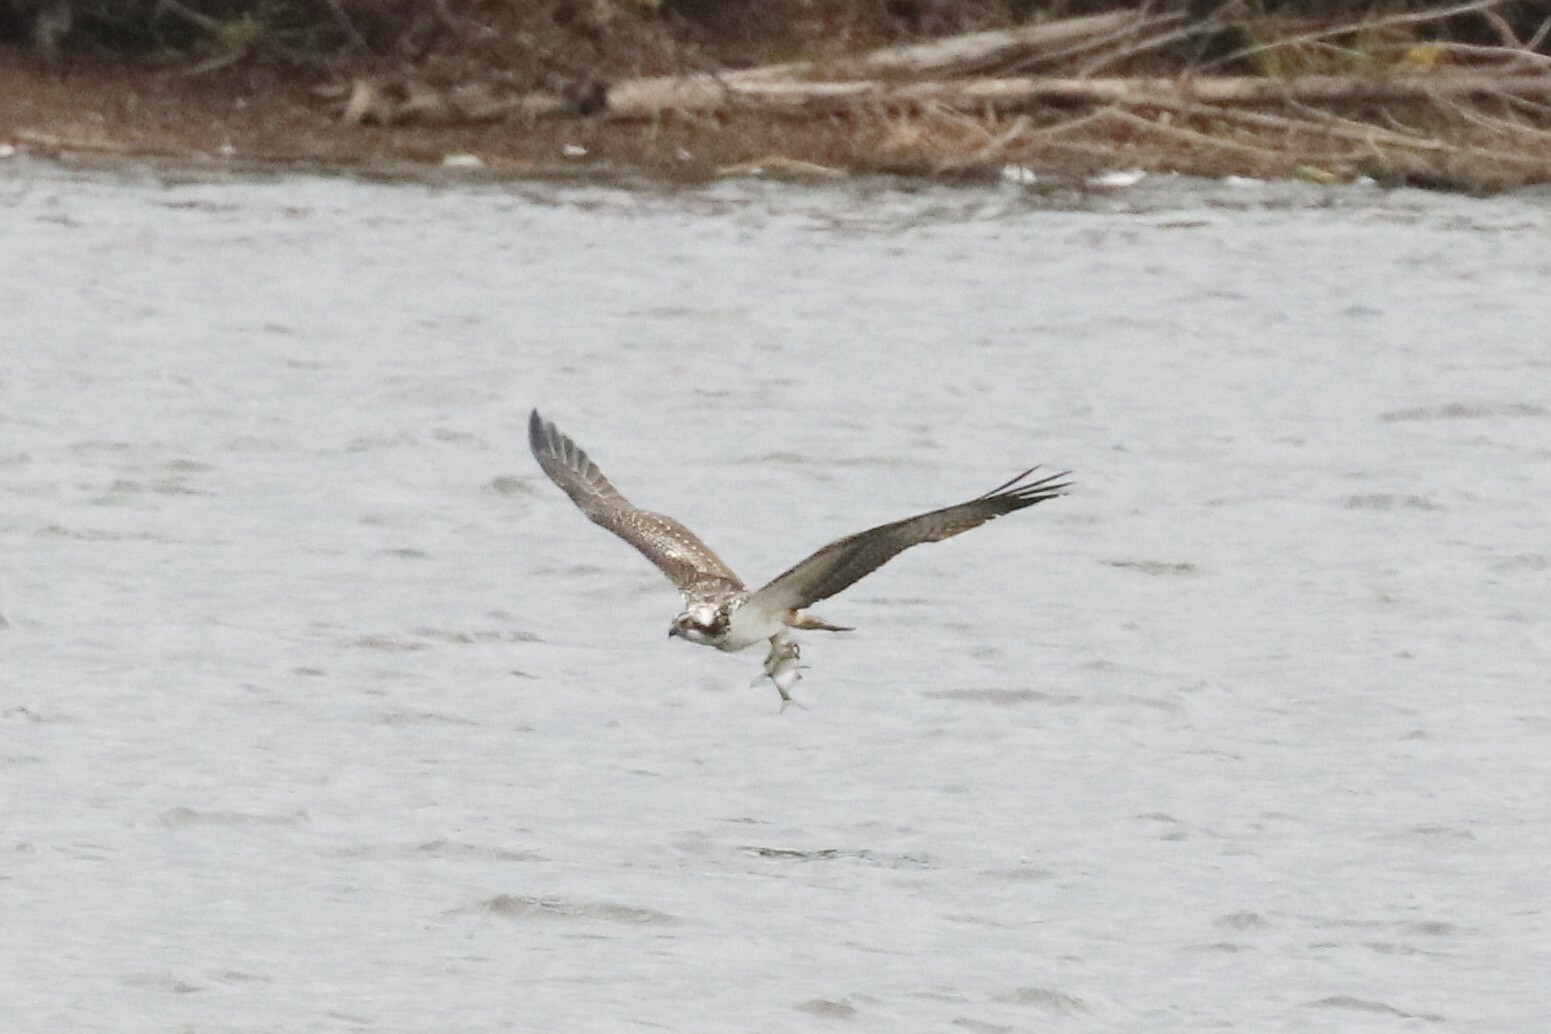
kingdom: Animalia
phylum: Chordata
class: Aves
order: Accipitriformes
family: Pandionidae
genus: Pandion
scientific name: Pandion haliaetus
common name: Osprey
